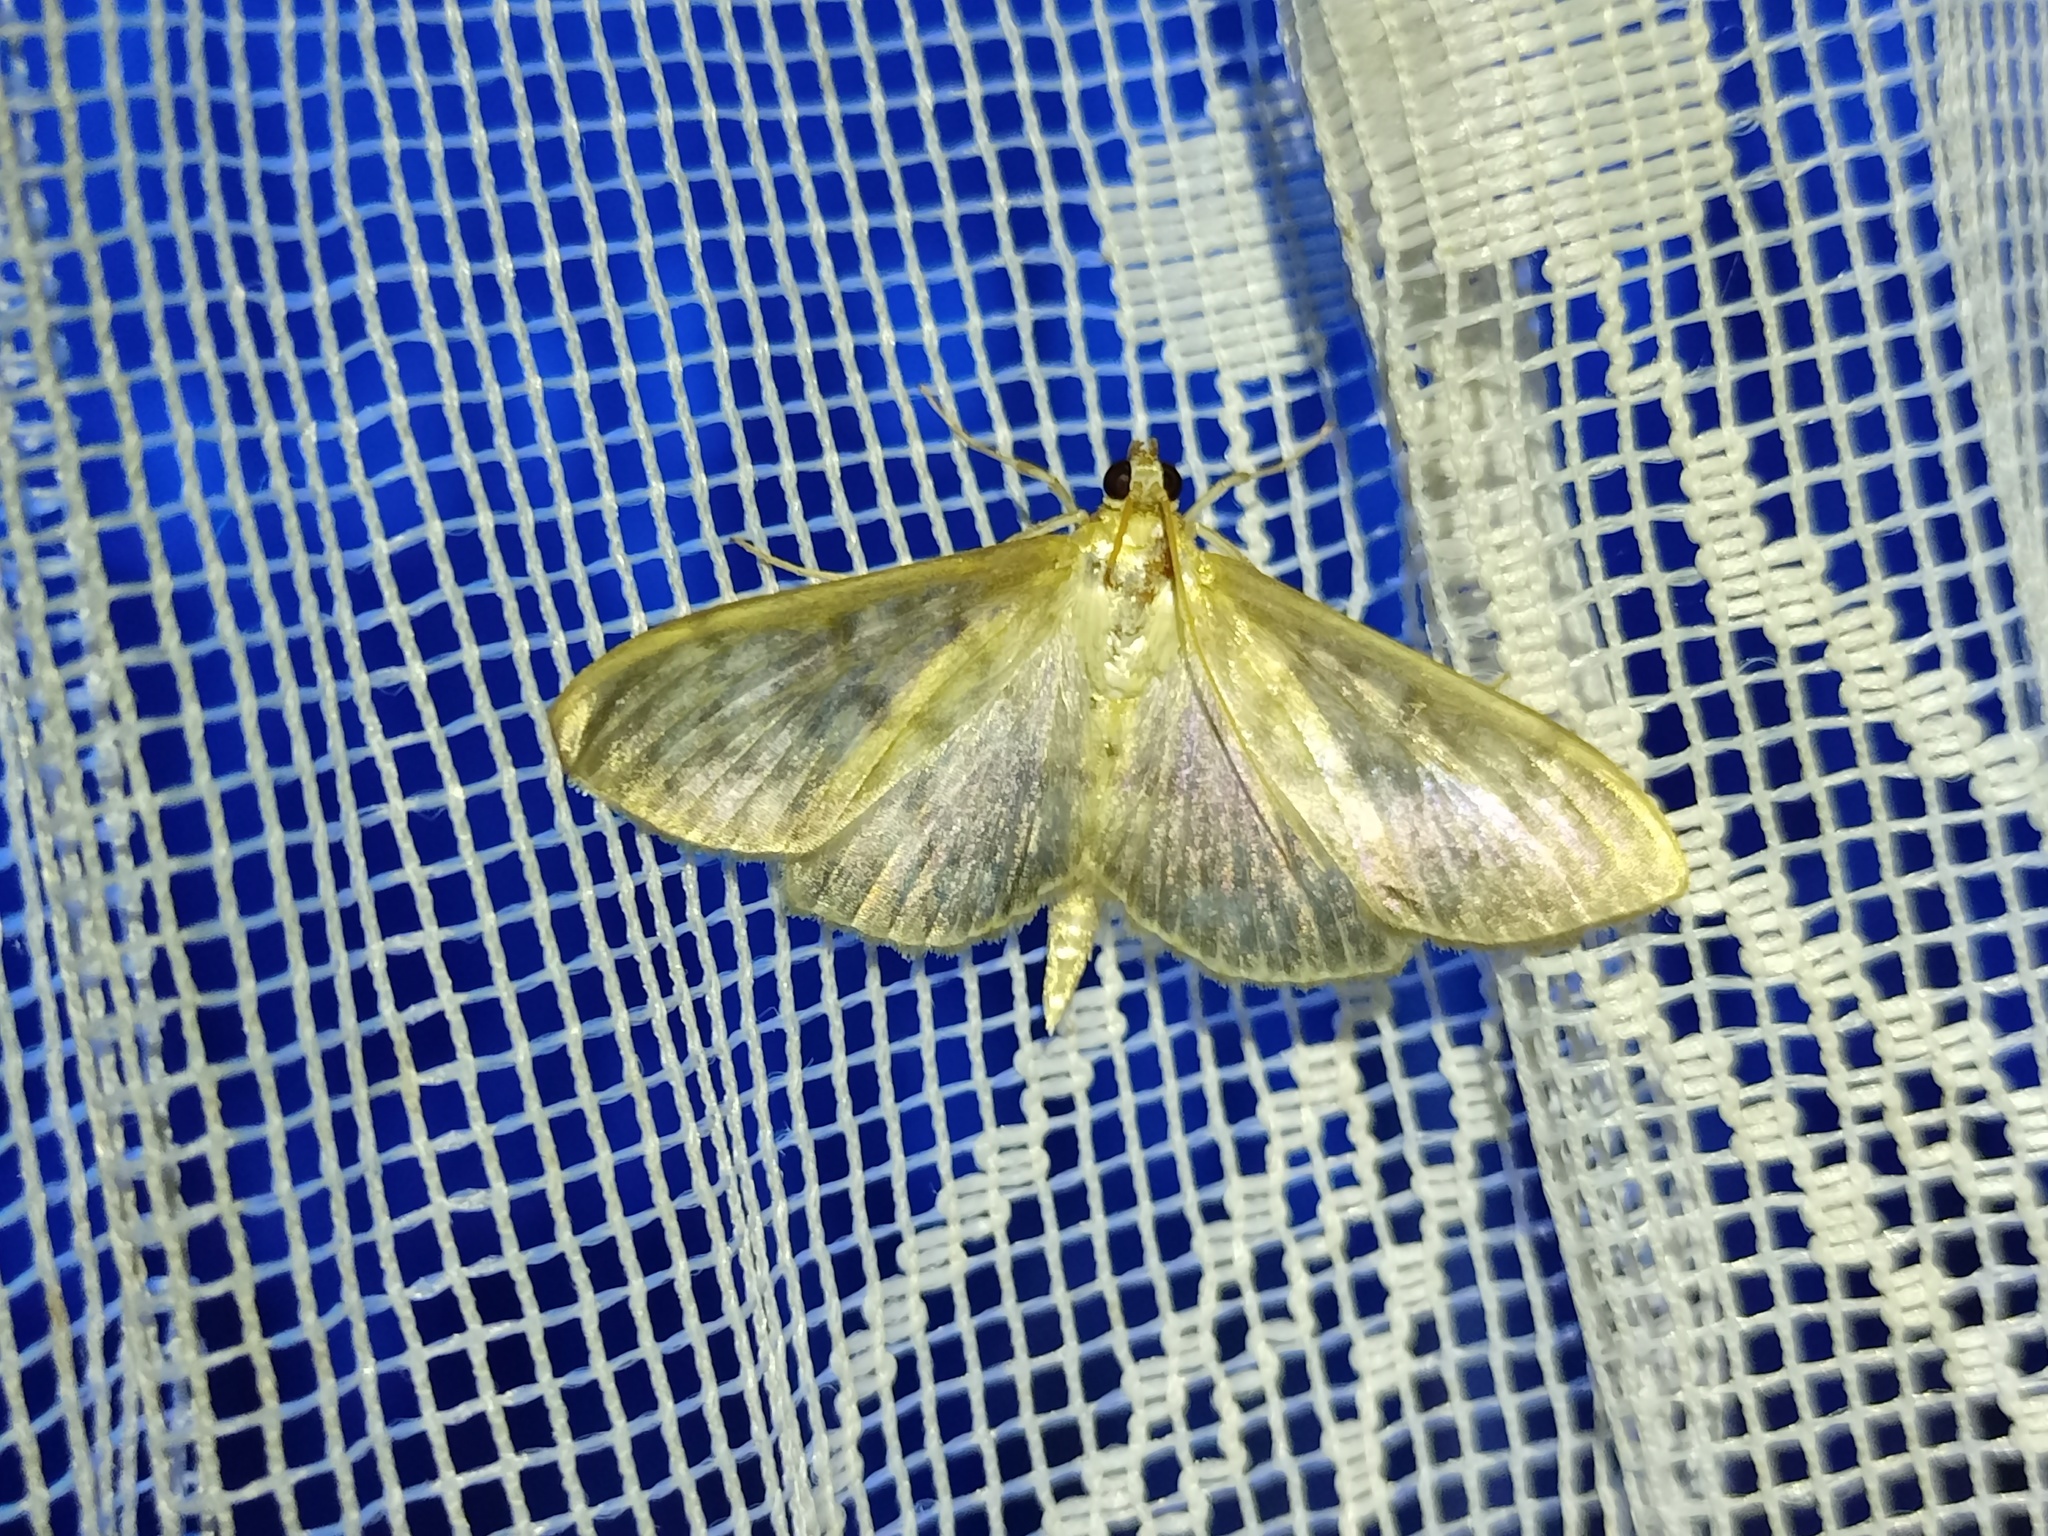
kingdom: Animalia
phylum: Arthropoda
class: Insecta
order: Lepidoptera
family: Crambidae
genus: Patania
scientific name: Patania ruralis
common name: Mother of pearl
